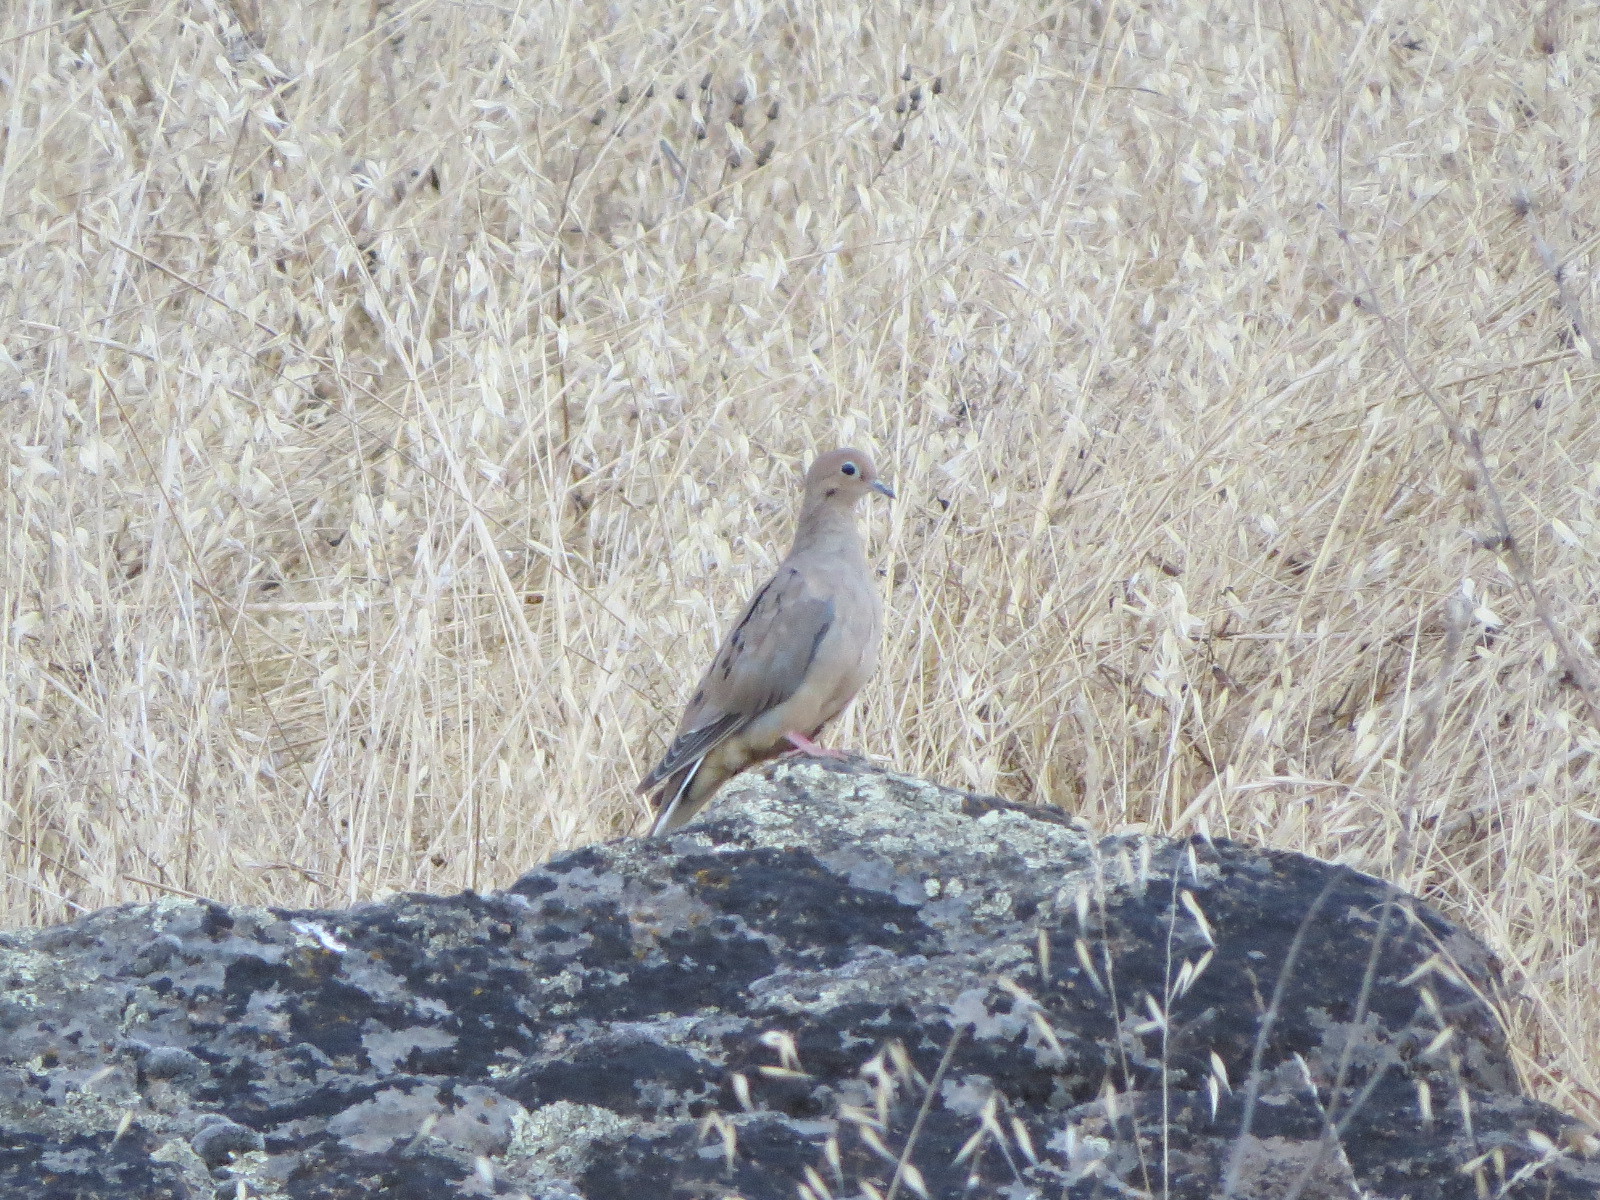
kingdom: Animalia
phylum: Chordata
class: Aves
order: Columbiformes
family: Columbidae
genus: Zenaida
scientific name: Zenaida macroura
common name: Mourning dove
